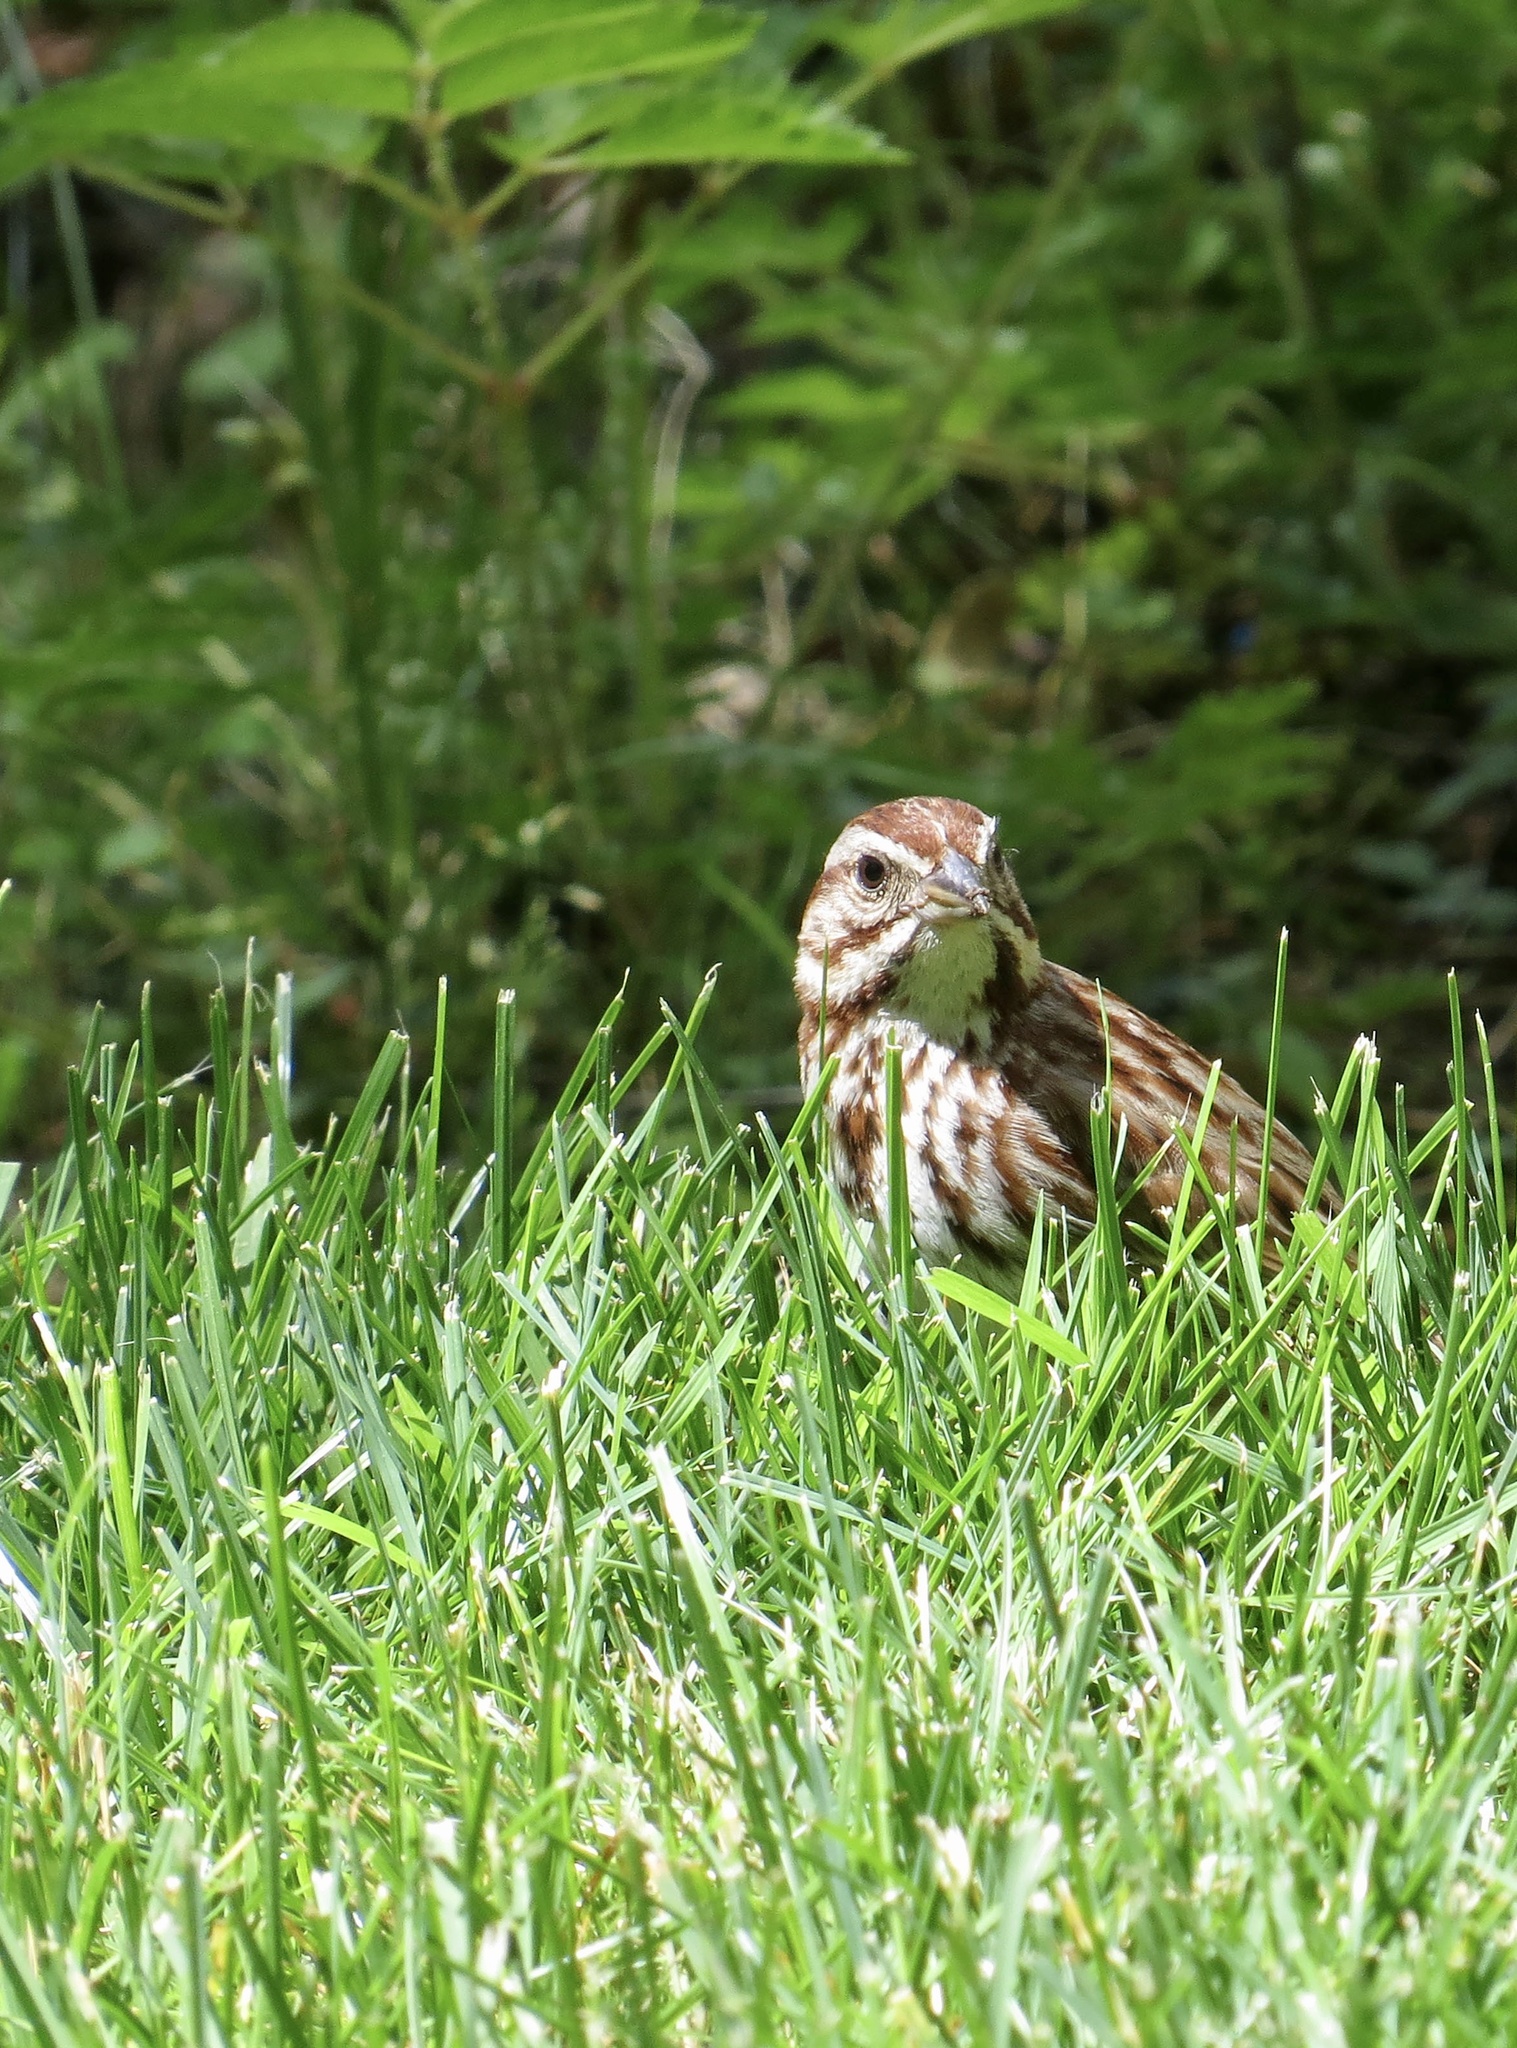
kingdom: Animalia
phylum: Chordata
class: Aves
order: Passeriformes
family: Passerellidae
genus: Melospiza
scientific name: Melospiza melodia
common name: Song sparrow
